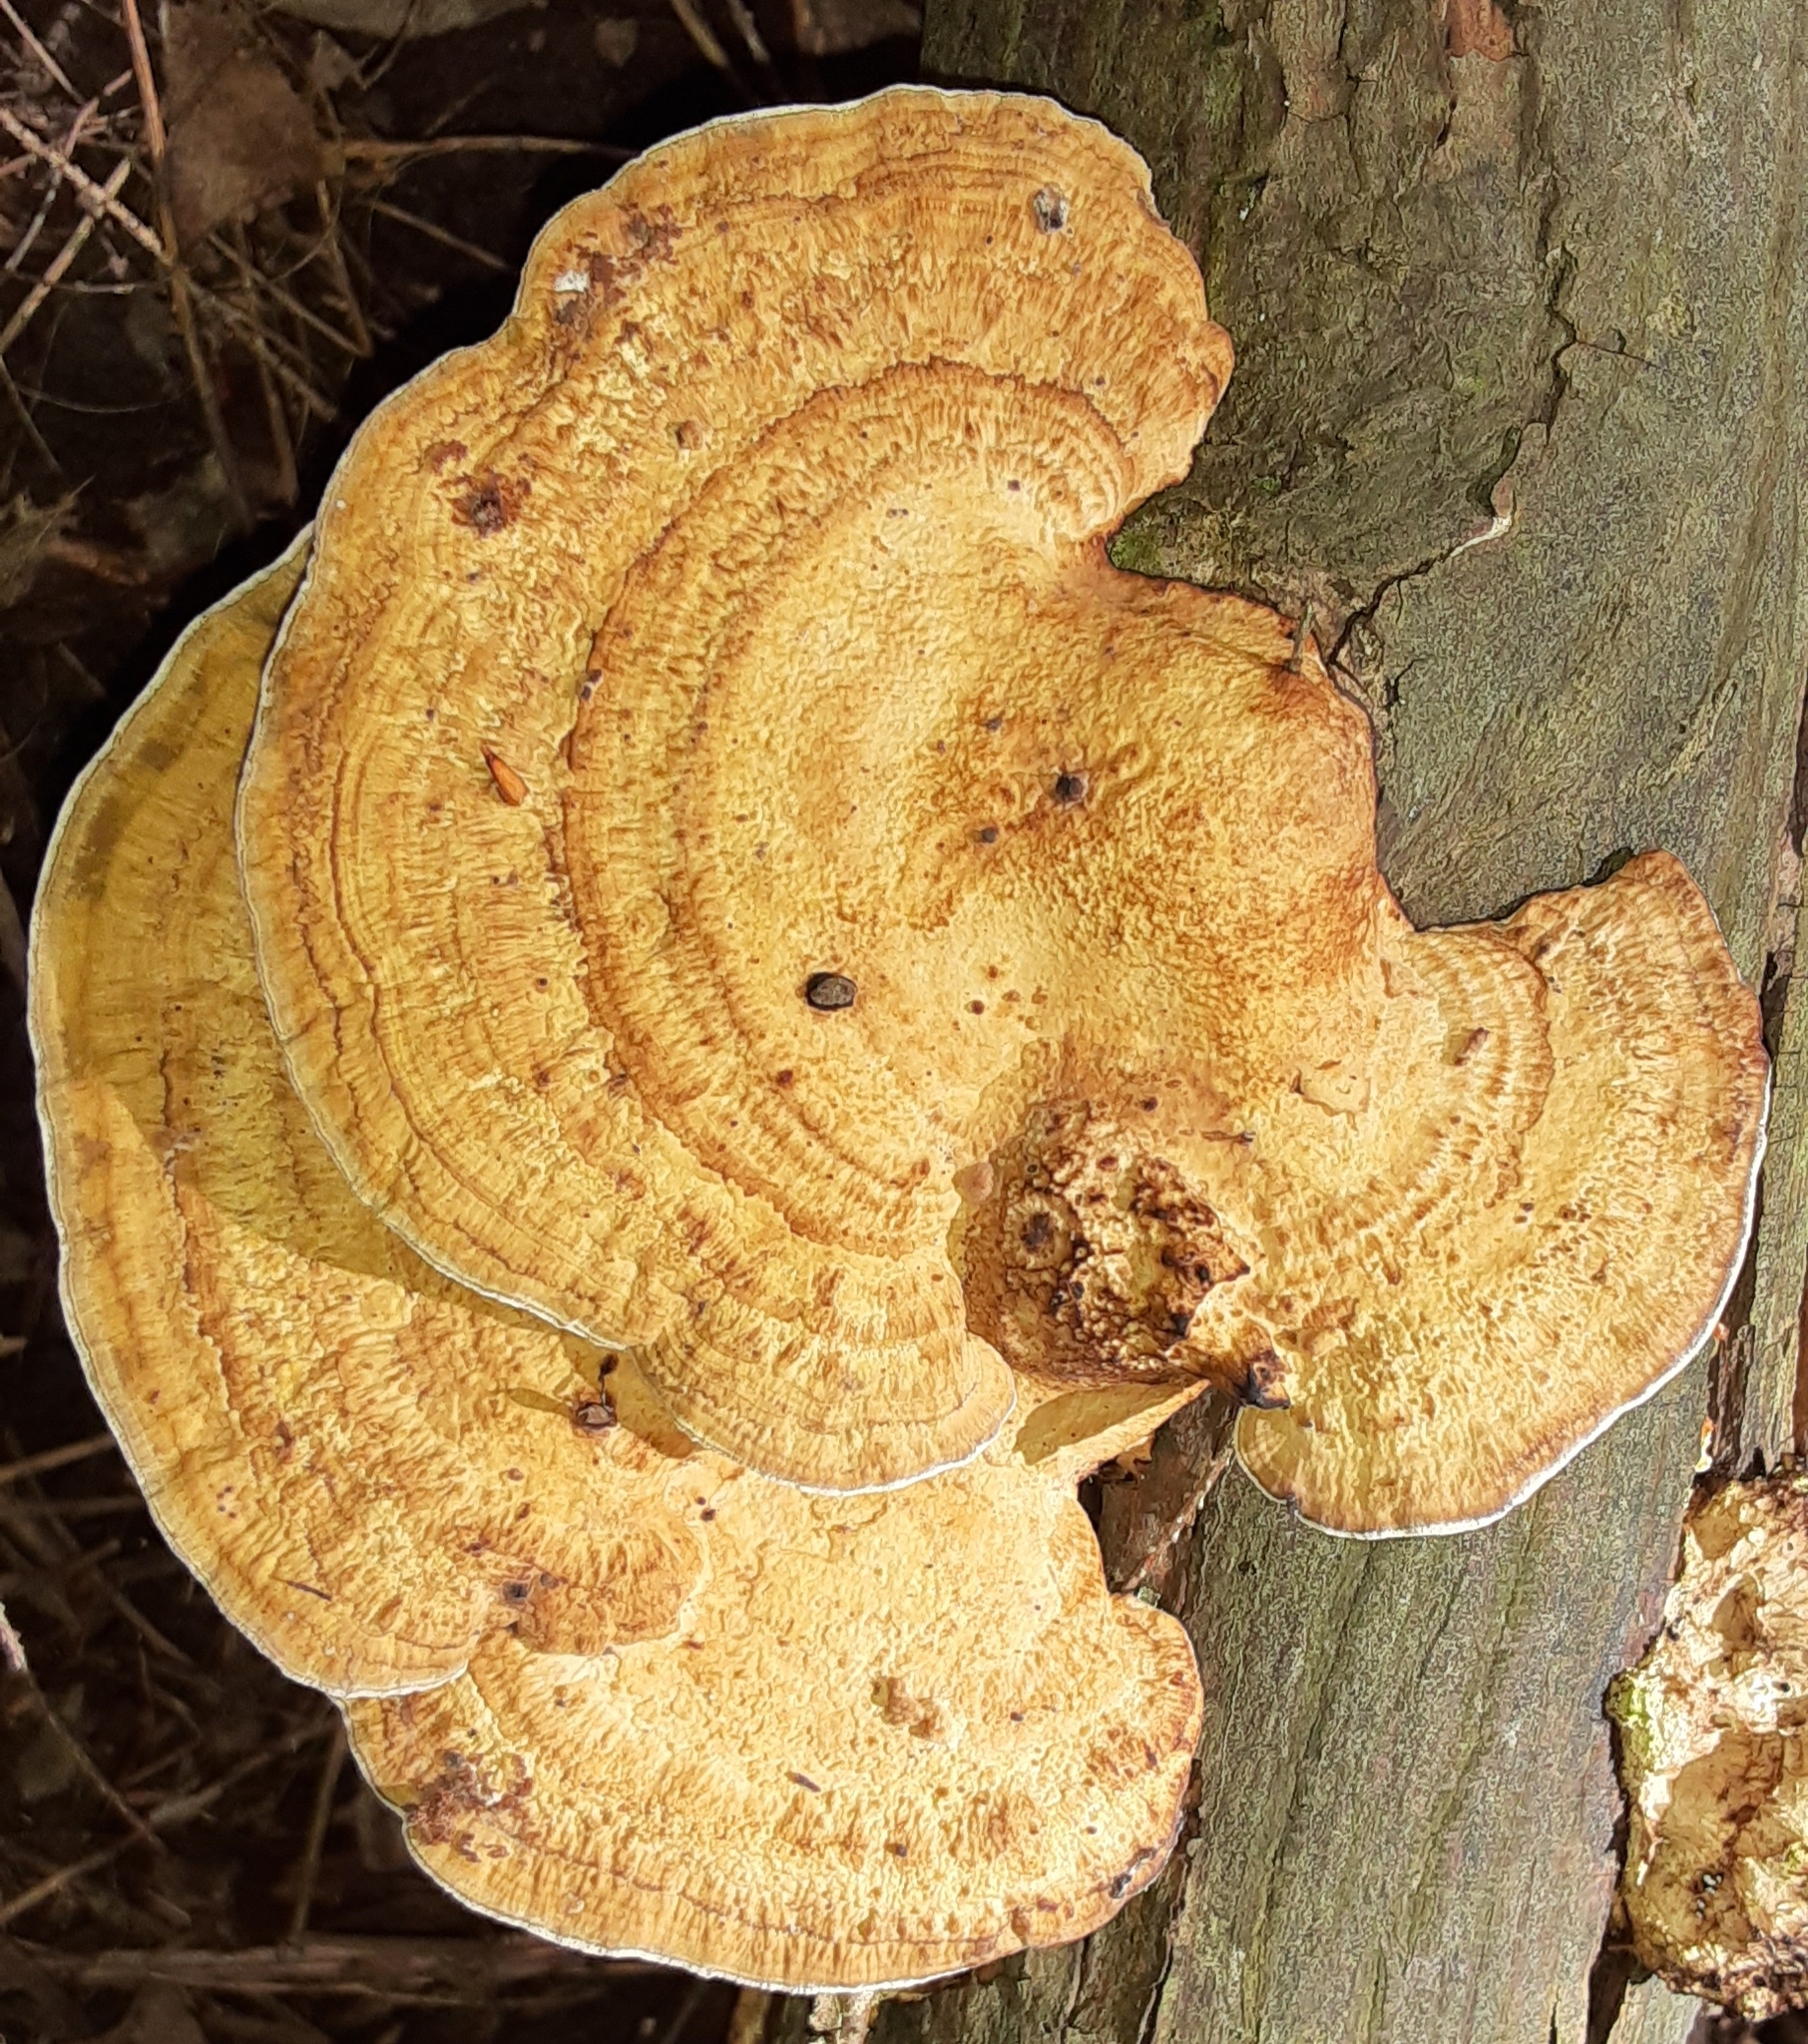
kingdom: Fungi
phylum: Basidiomycota
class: Agaricomycetes
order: Polyporales
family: Polyporaceae
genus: Daedaleopsis
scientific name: Daedaleopsis confragosa
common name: Blushing bracket
